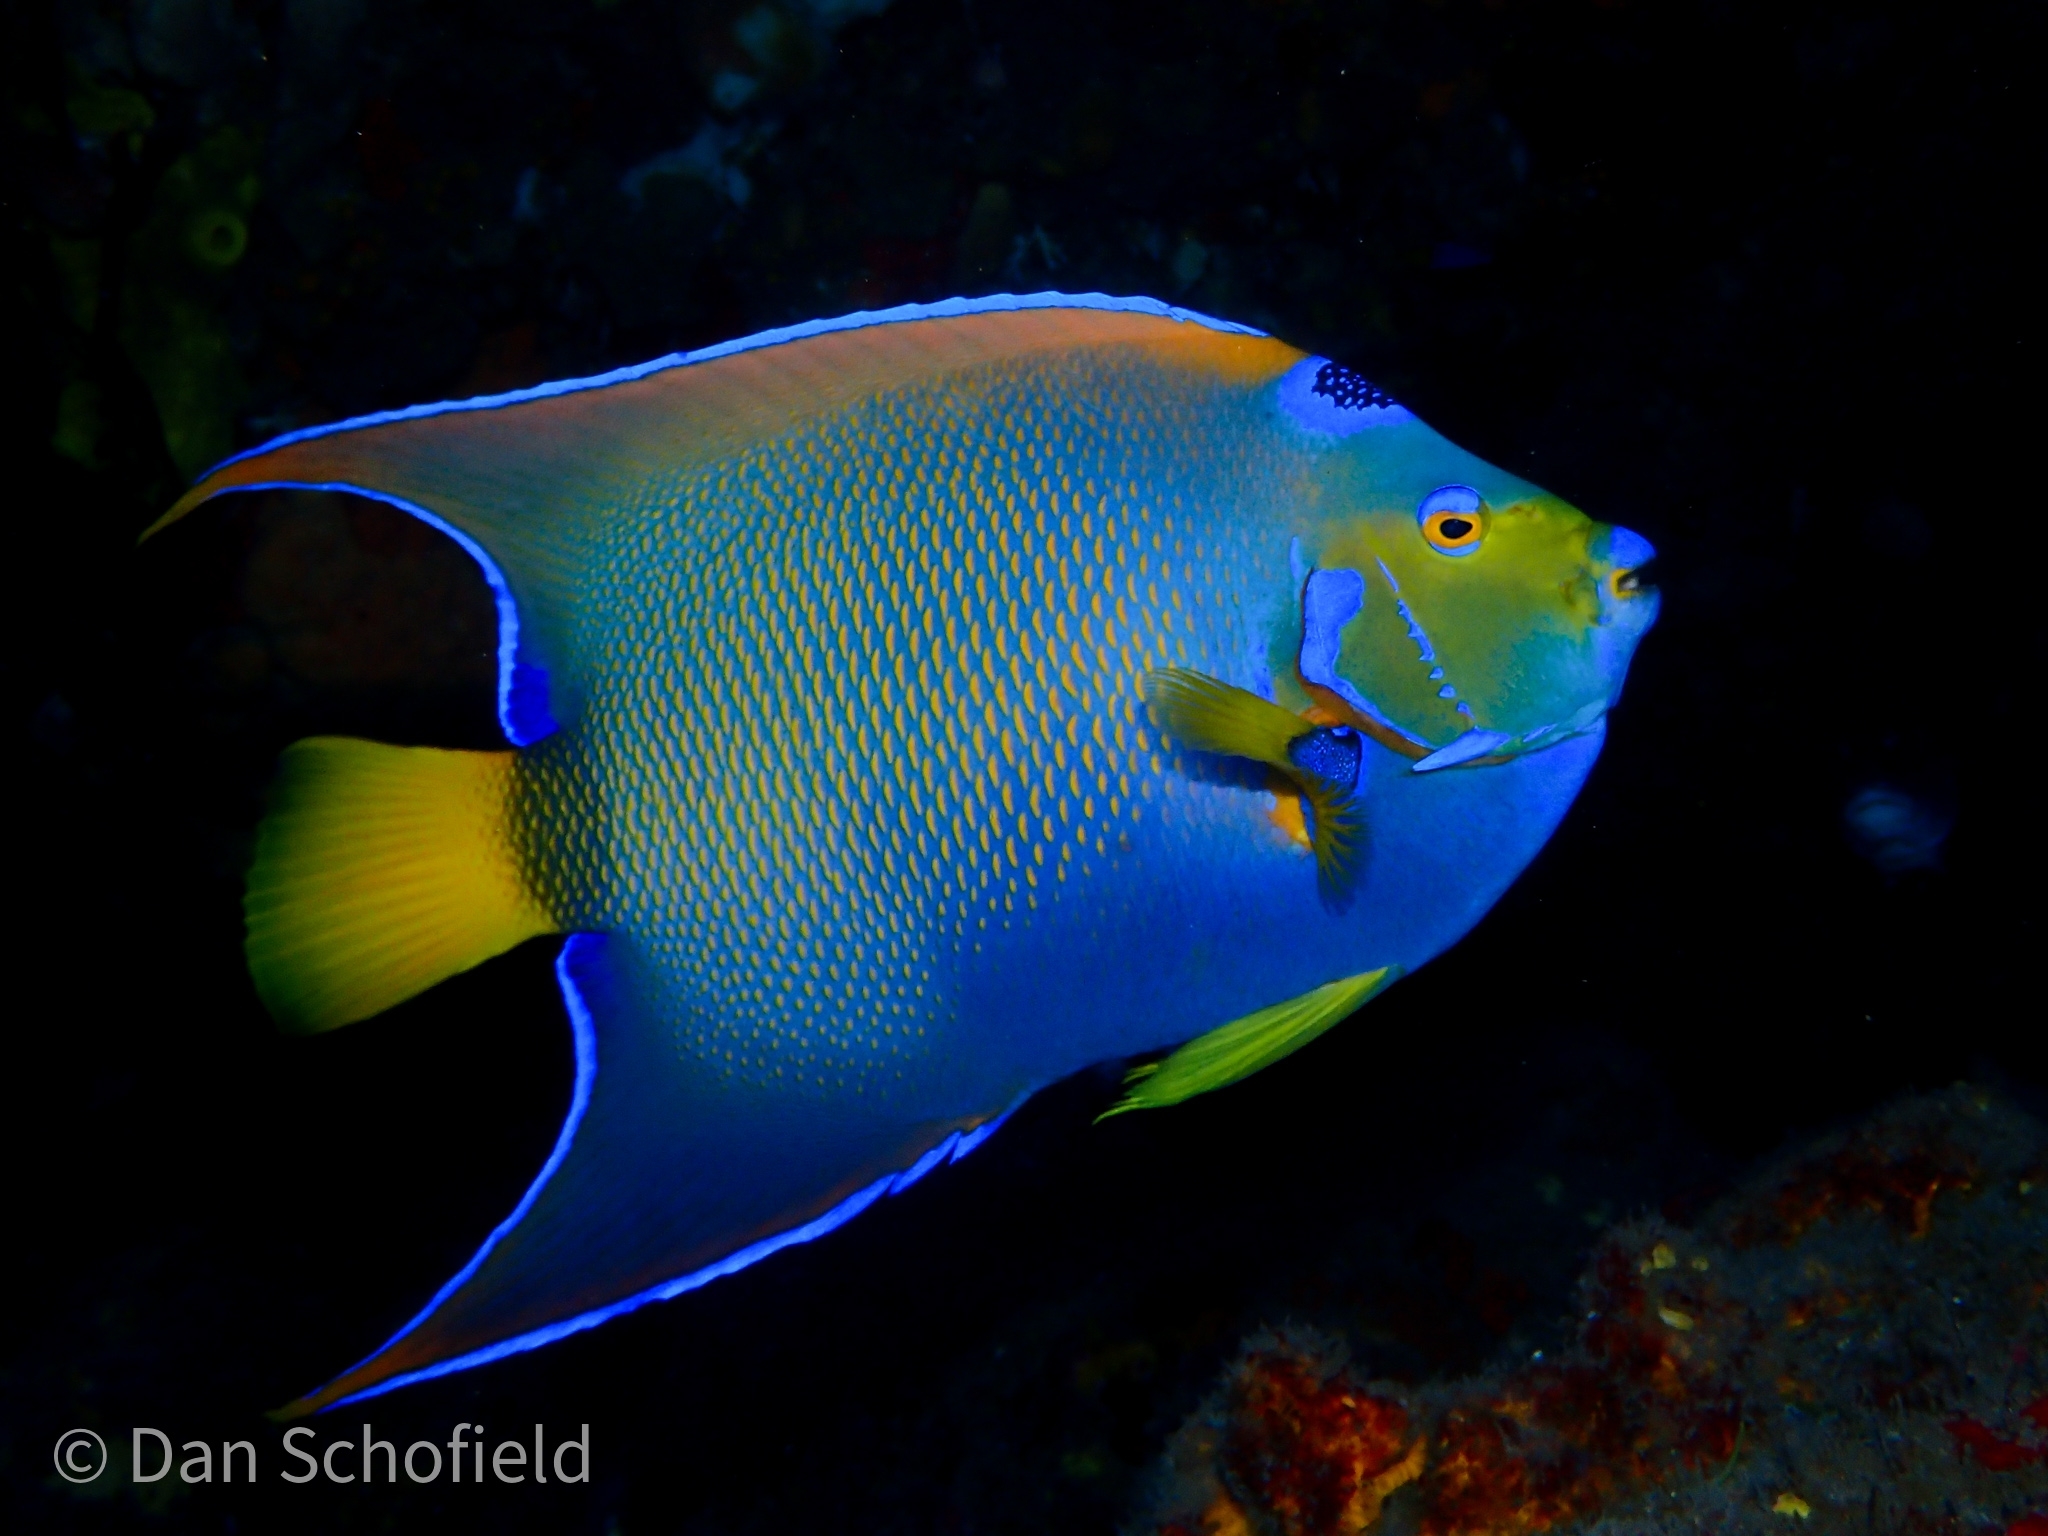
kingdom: Animalia
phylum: Chordata
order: Perciformes
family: Pomacanthidae
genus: Holacanthus
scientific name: Holacanthus ciliaris
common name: Queen angelfish
